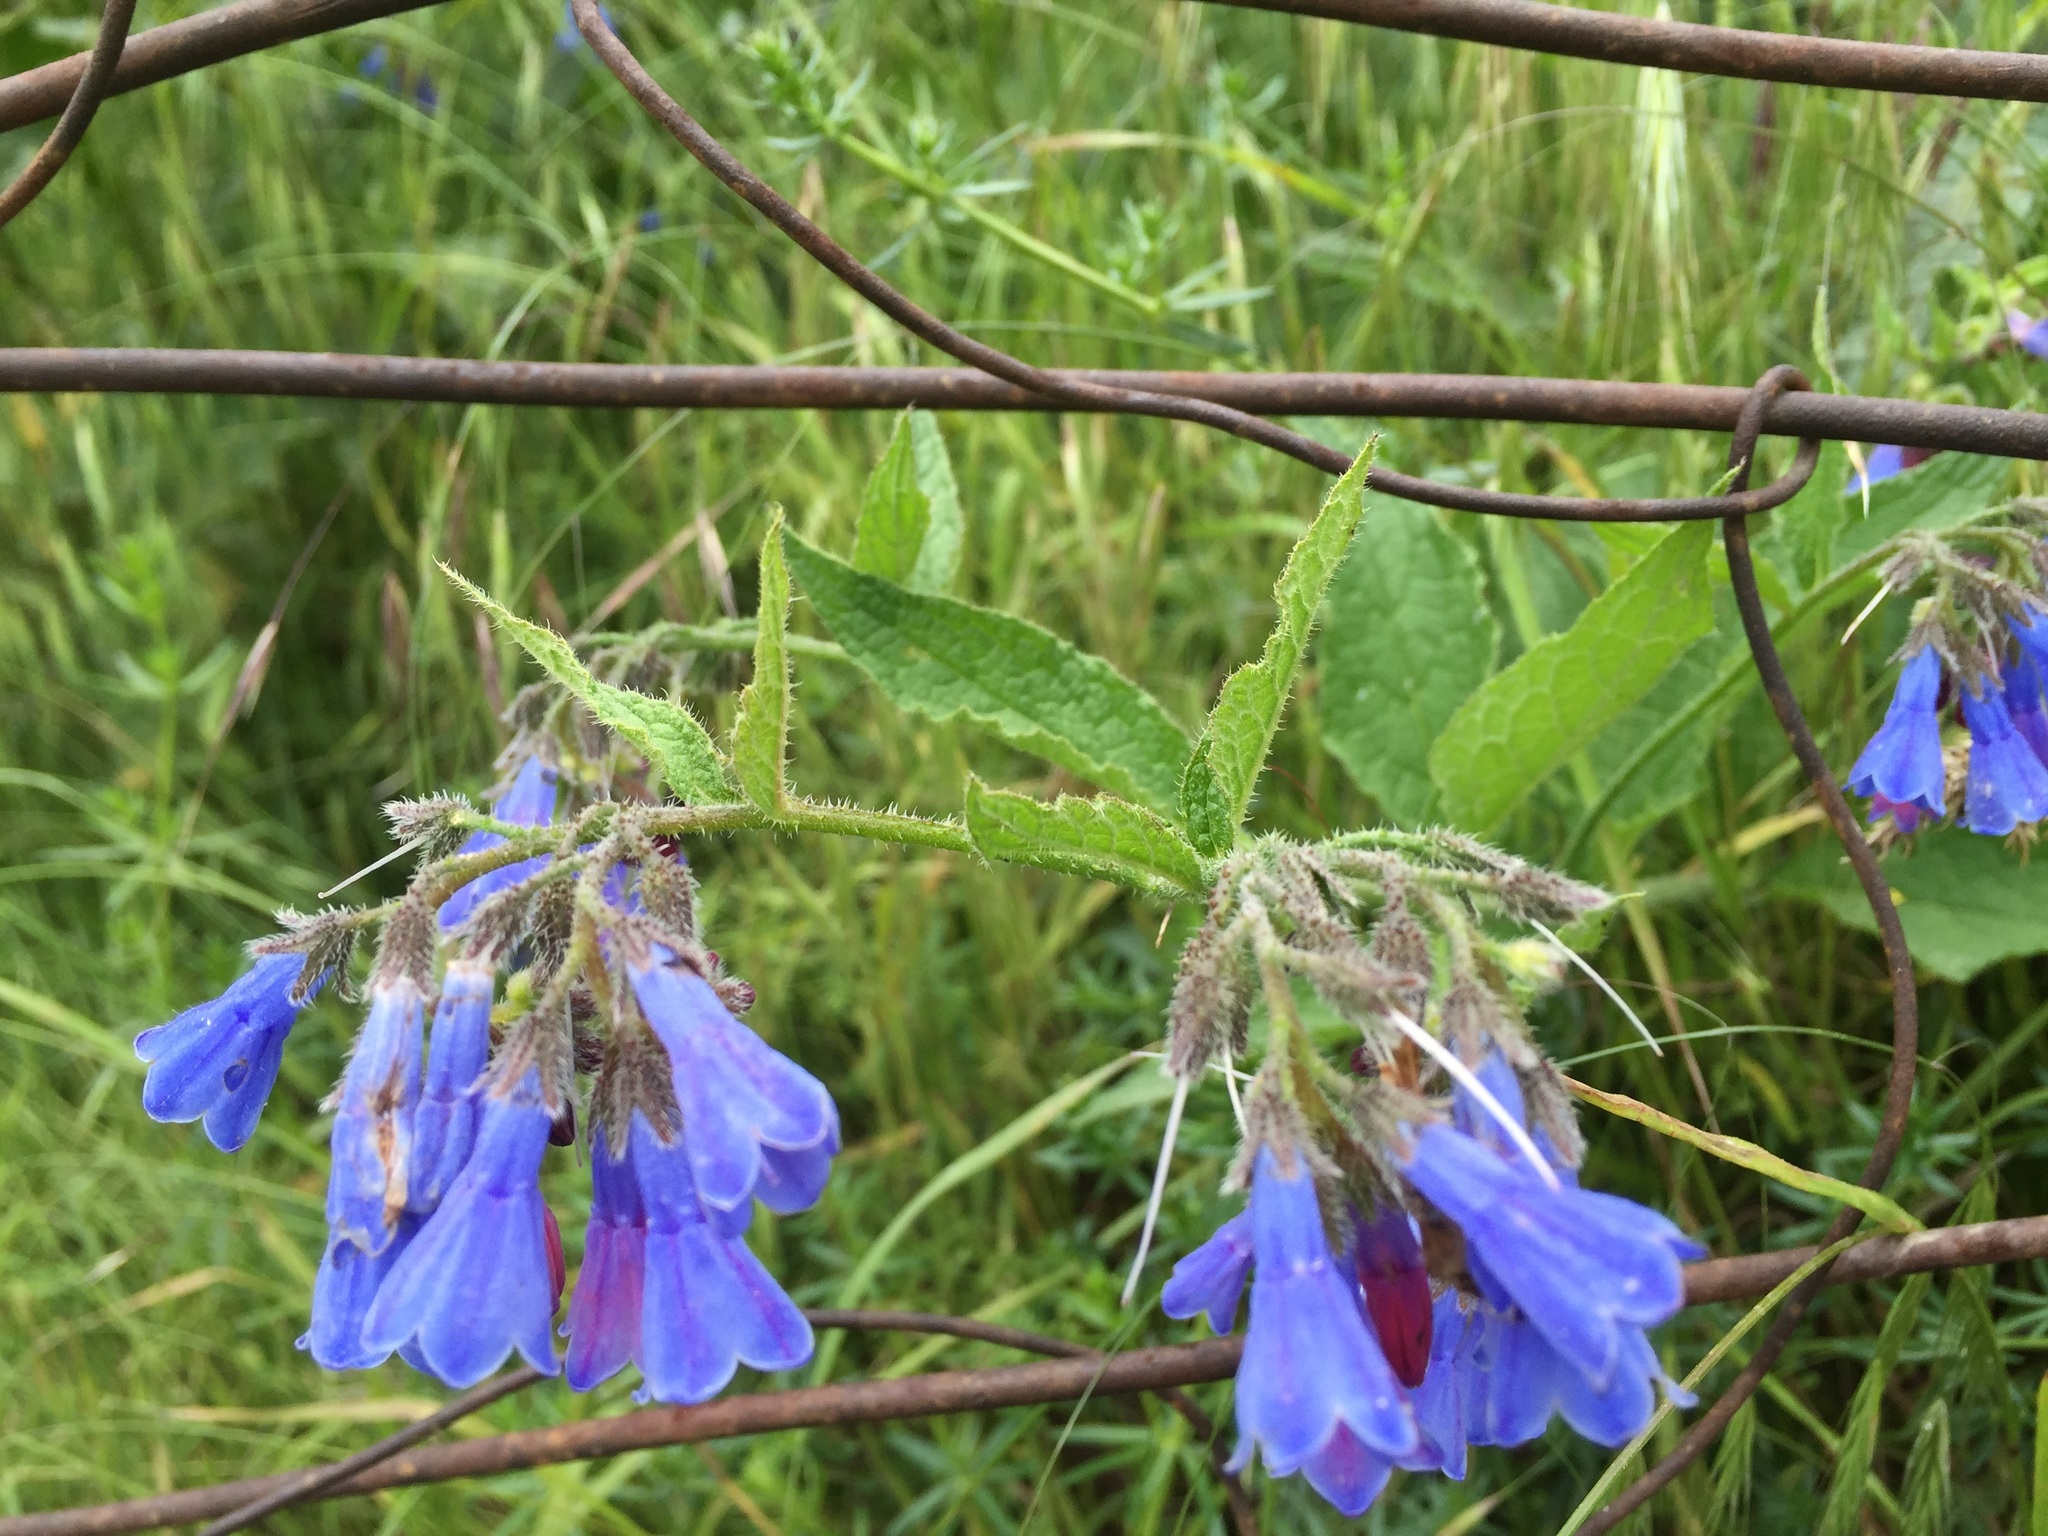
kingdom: Plantae
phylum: Tracheophyta
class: Magnoliopsida
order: Boraginales
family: Boraginaceae
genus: Symphytum
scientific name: Symphytum asperum
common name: Prickly comfrey
